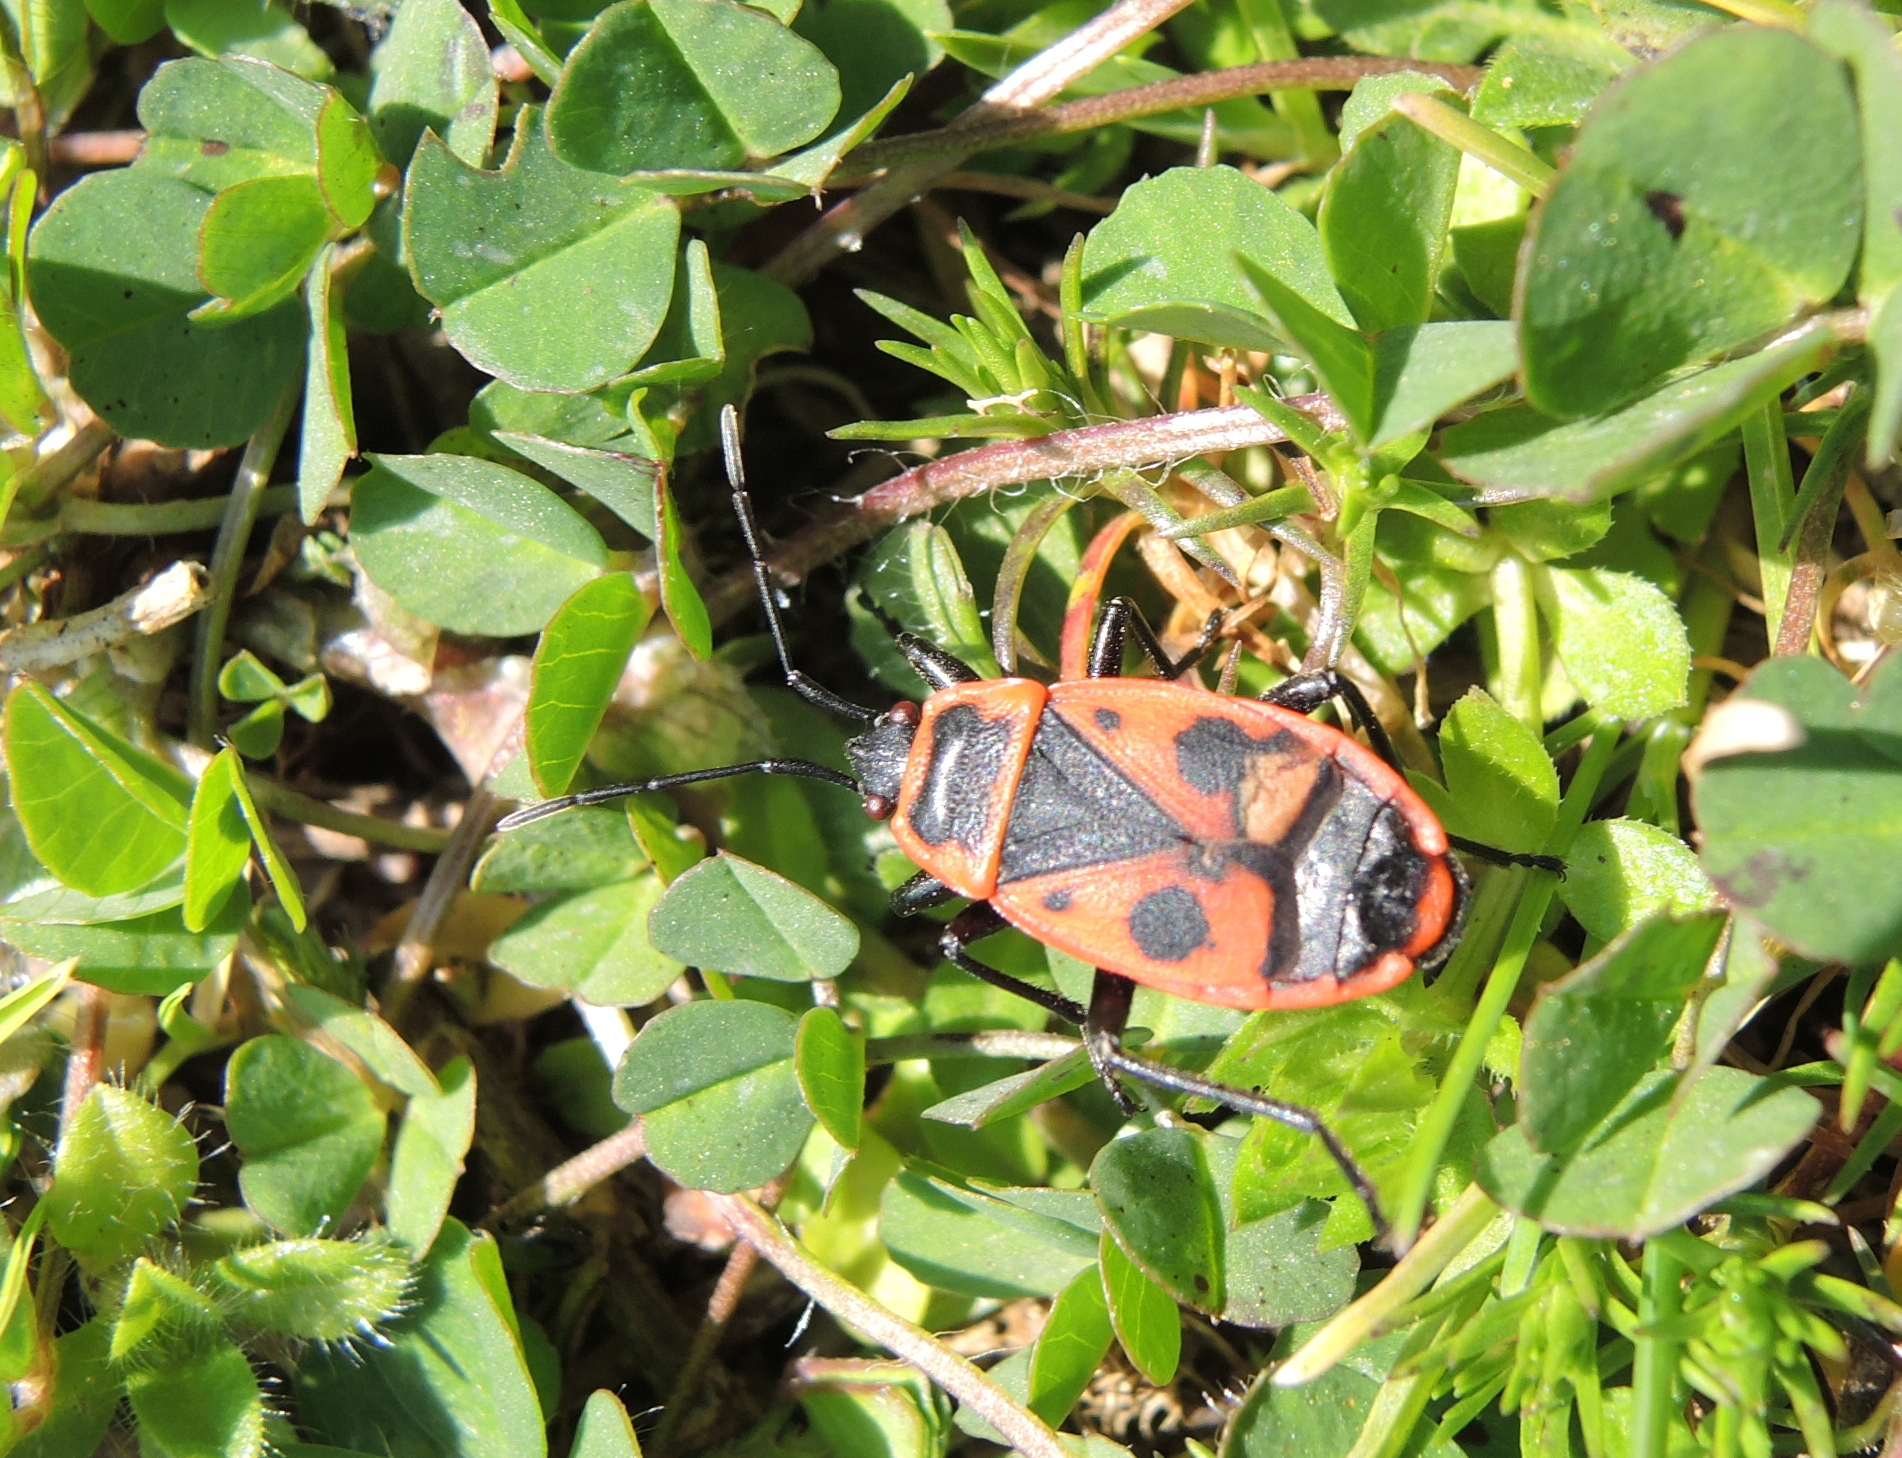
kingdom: Animalia
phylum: Arthropoda
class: Insecta
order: Hemiptera
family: Pyrrhocoridae
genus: Pyrrhocoris
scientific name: Pyrrhocoris apterus
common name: Firebug
